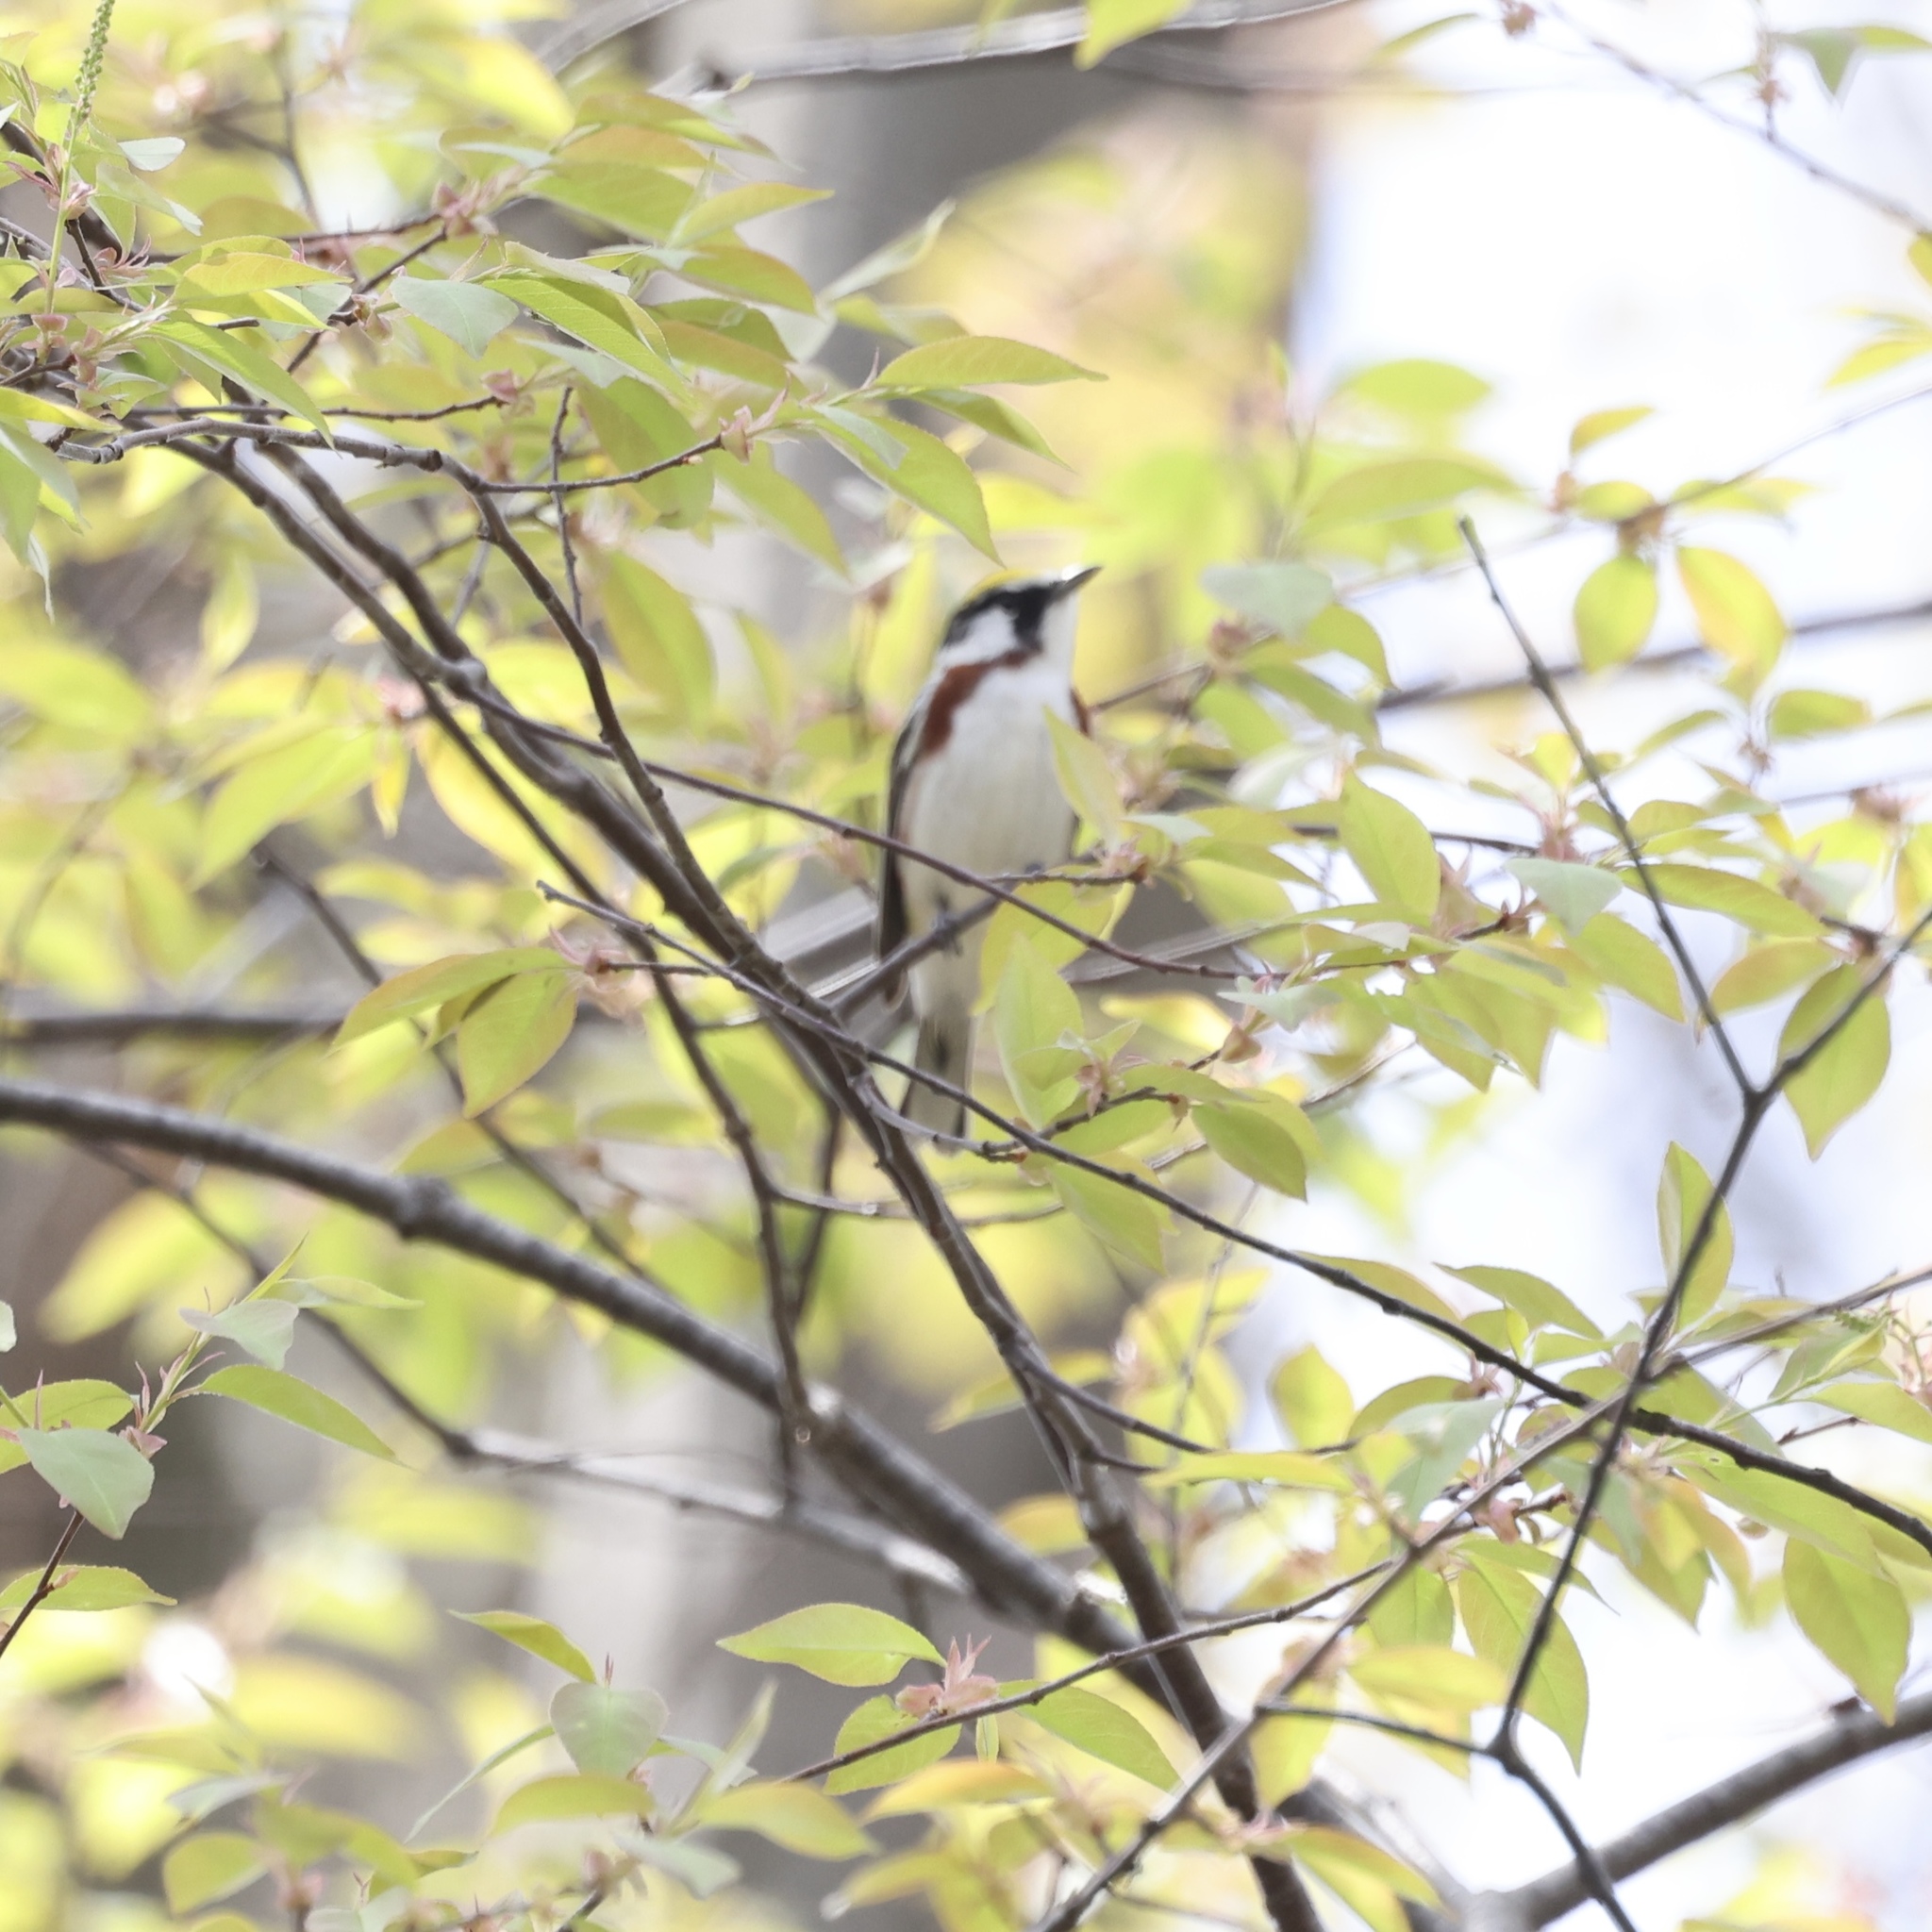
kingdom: Animalia
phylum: Chordata
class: Aves
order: Passeriformes
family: Parulidae
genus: Setophaga
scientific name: Setophaga pensylvanica
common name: Chestnut-sided warbler
